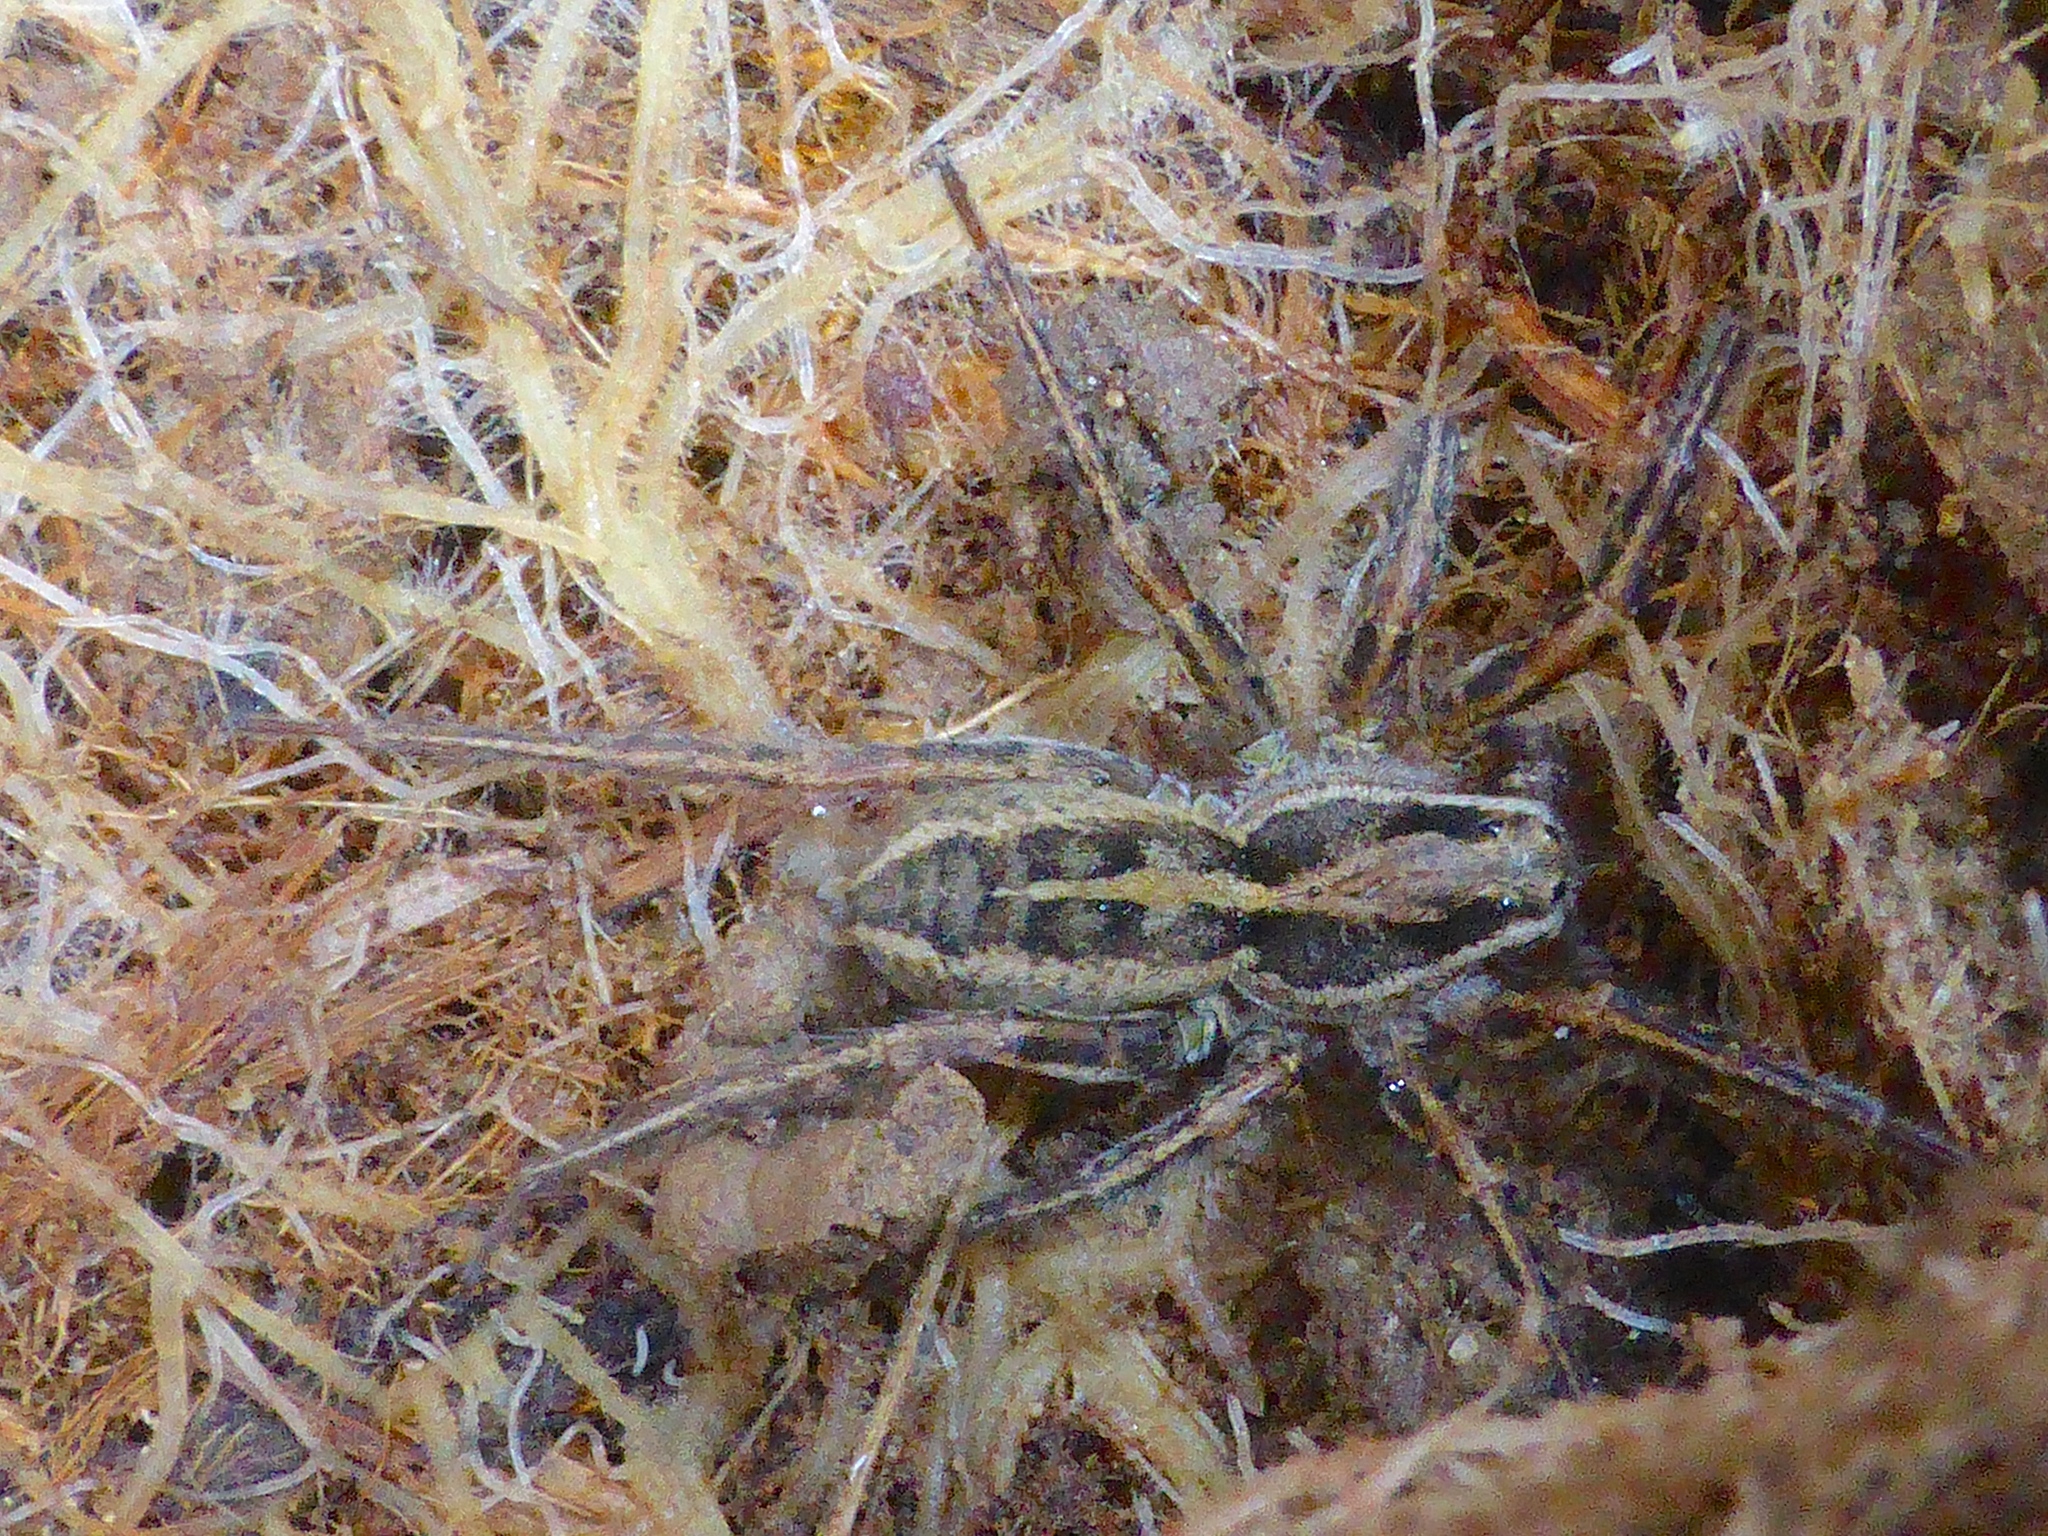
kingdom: Animalia
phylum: Arthropoda
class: Arachnida
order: Araneae
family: Lycosidae
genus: Anoteropsis
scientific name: Anoteropsis hilaris
